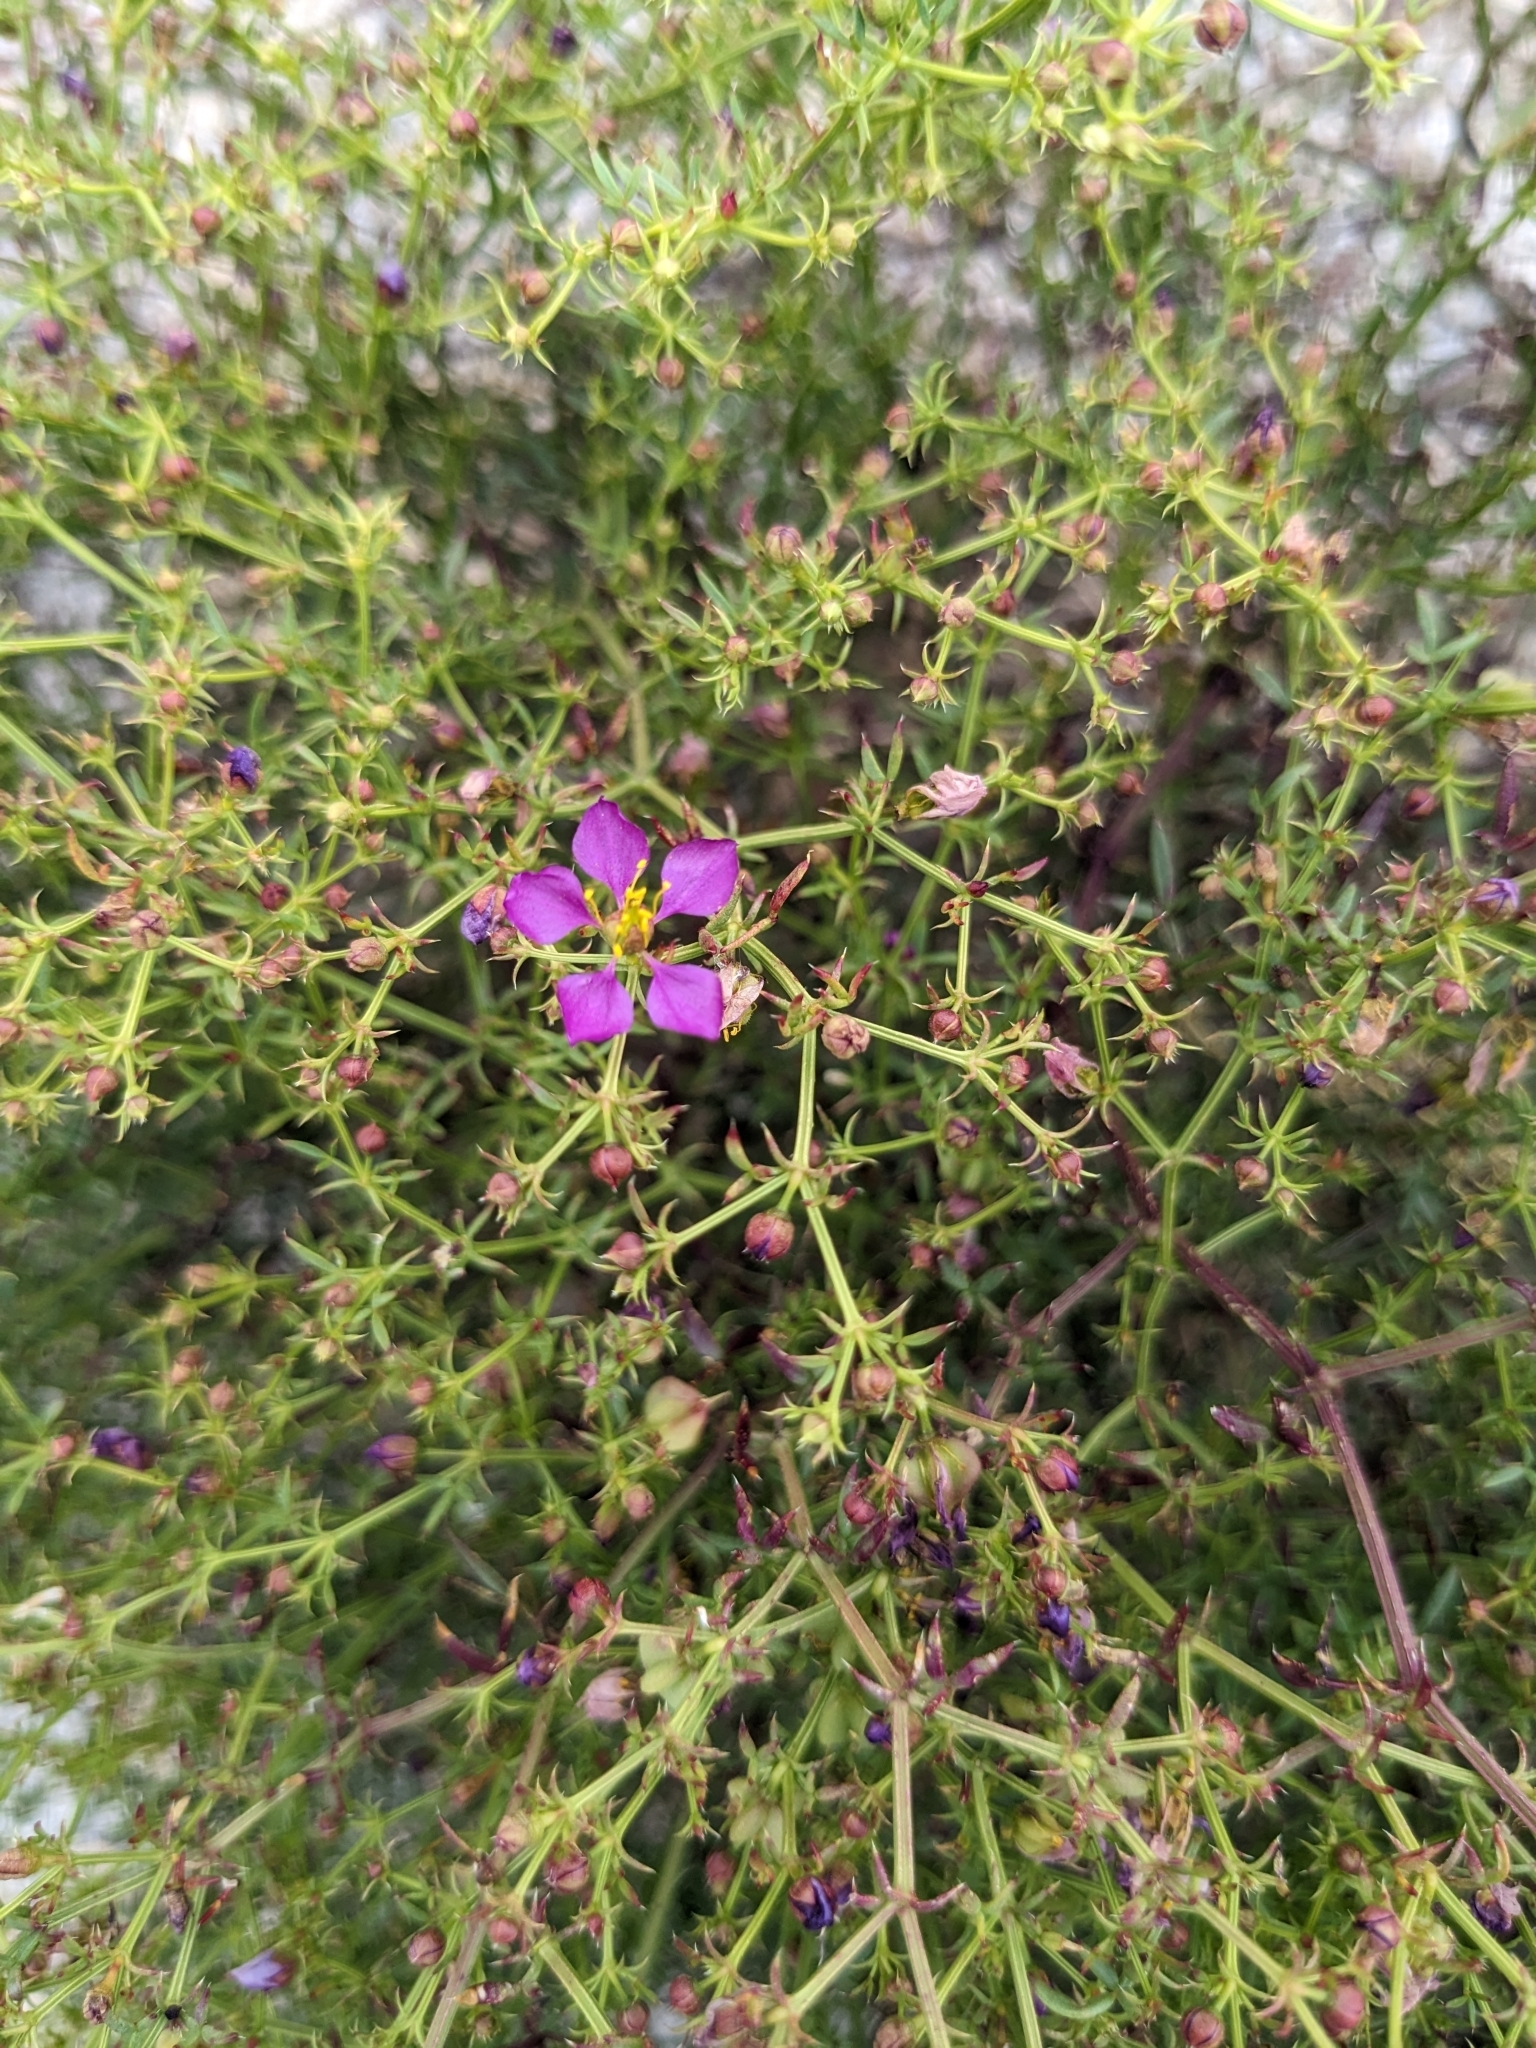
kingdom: Plantae
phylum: Tracheophyta
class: Magnoliopsida
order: Zygophyllales
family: Zygophyllaceae
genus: Fagonia
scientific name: Fagonia laevis
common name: California fagonbush
